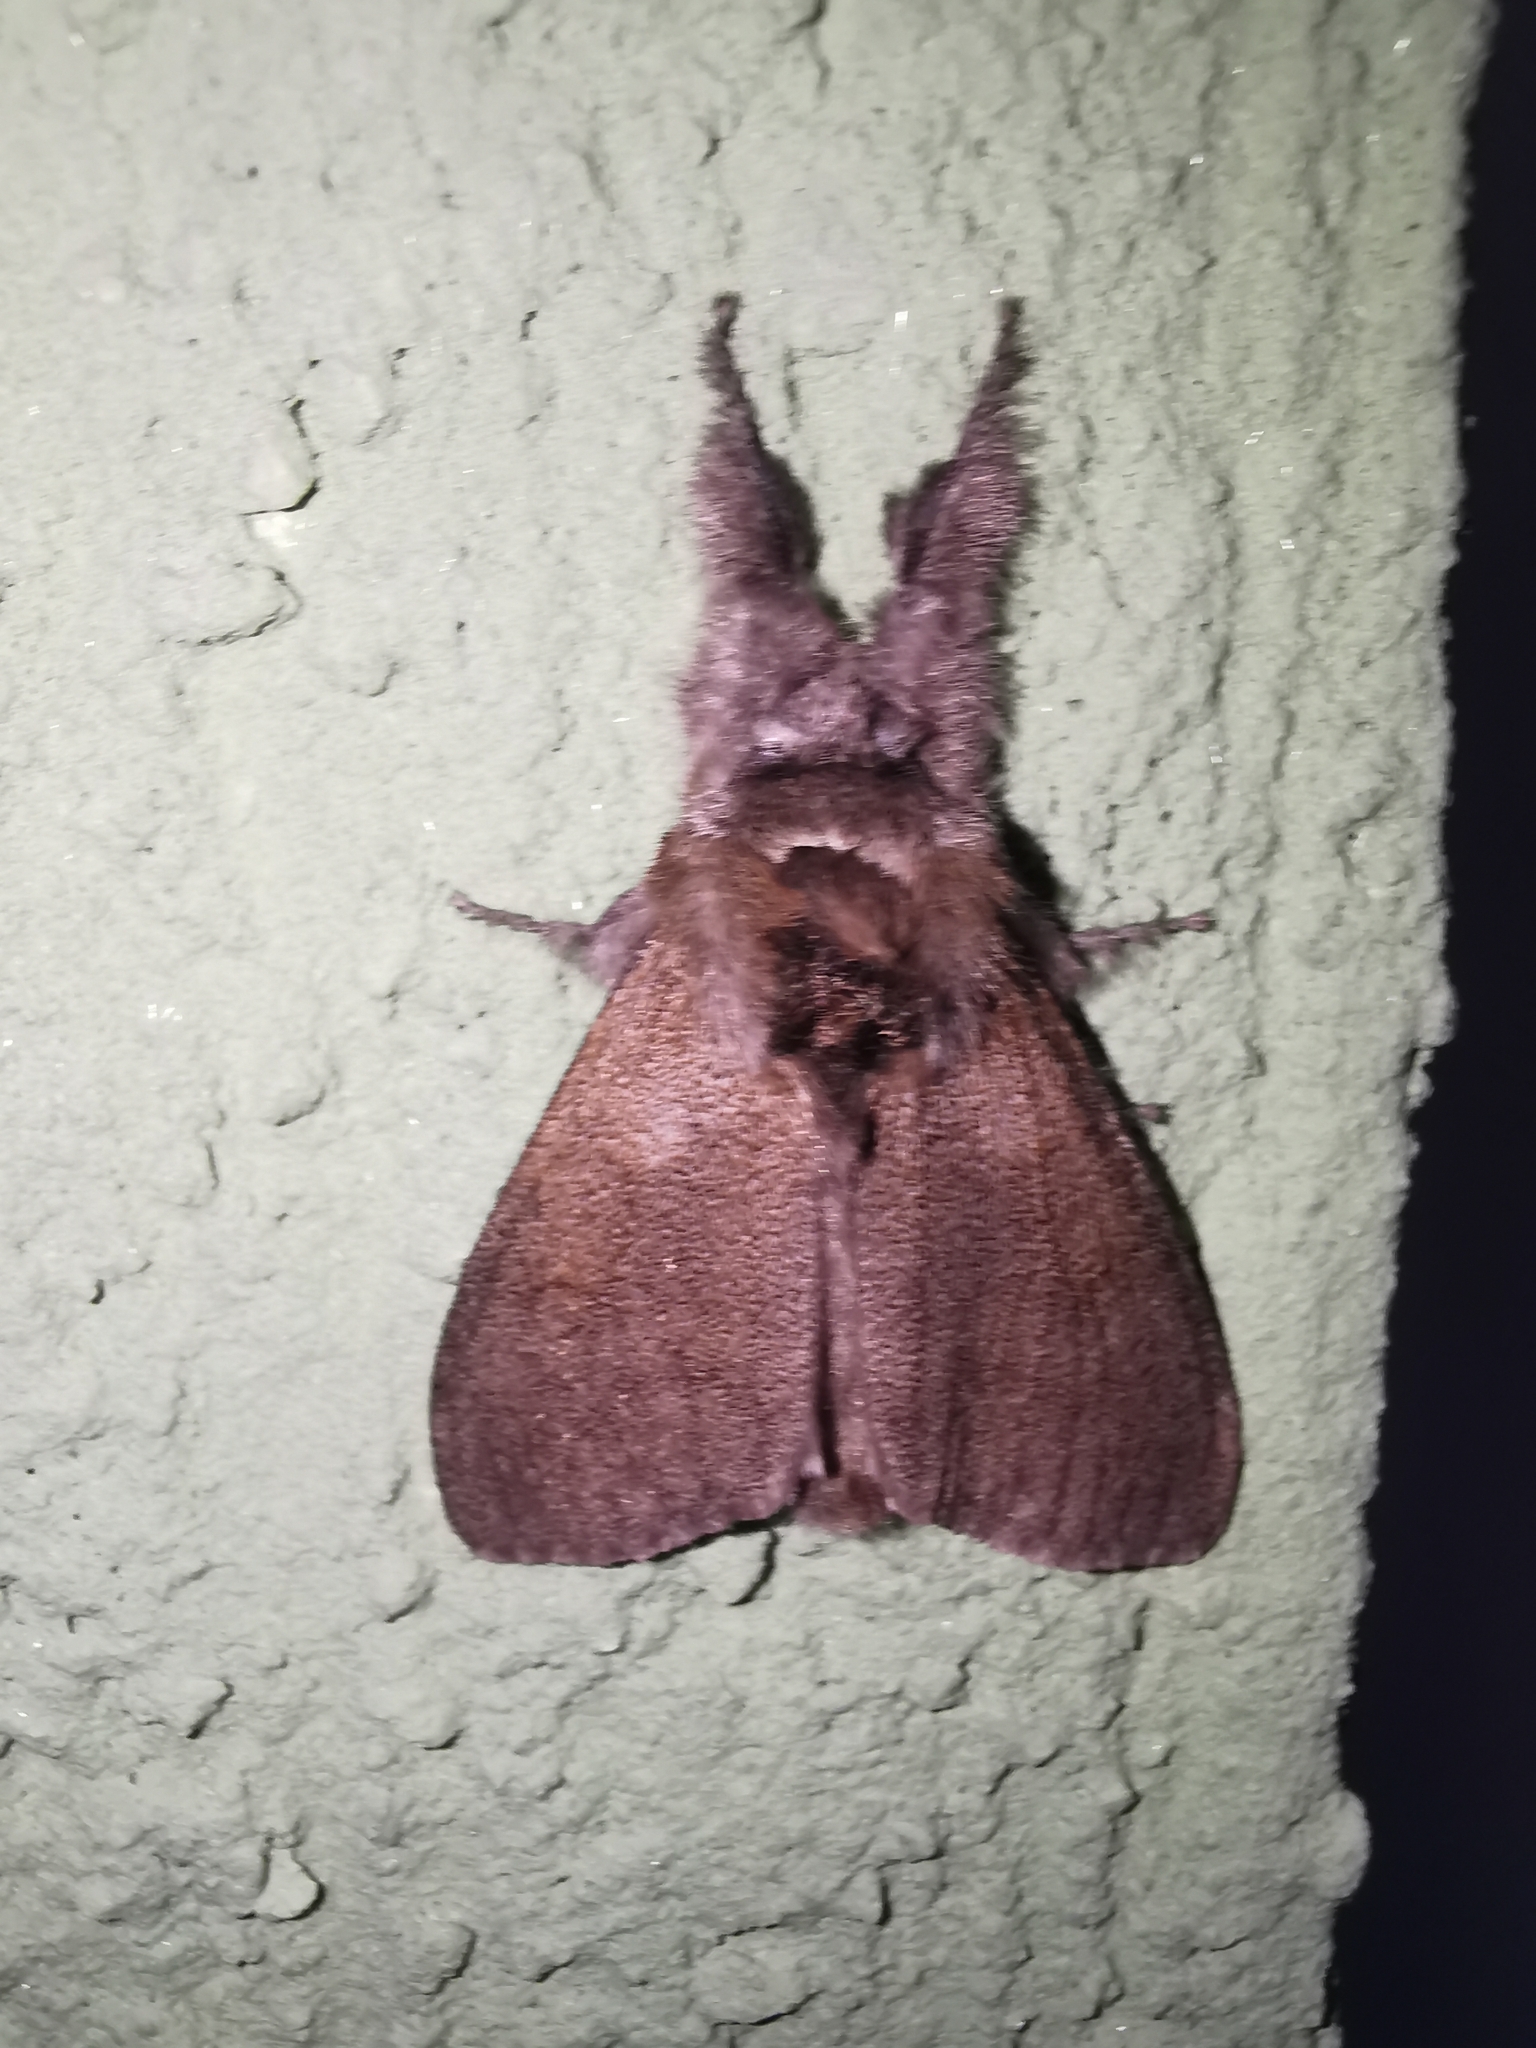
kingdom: Animalia
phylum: Arthropoda
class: Insecta
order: Lepidoptera
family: Erebidae
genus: Calliteara
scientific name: Calliteara pudibunda
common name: Pale tussock
